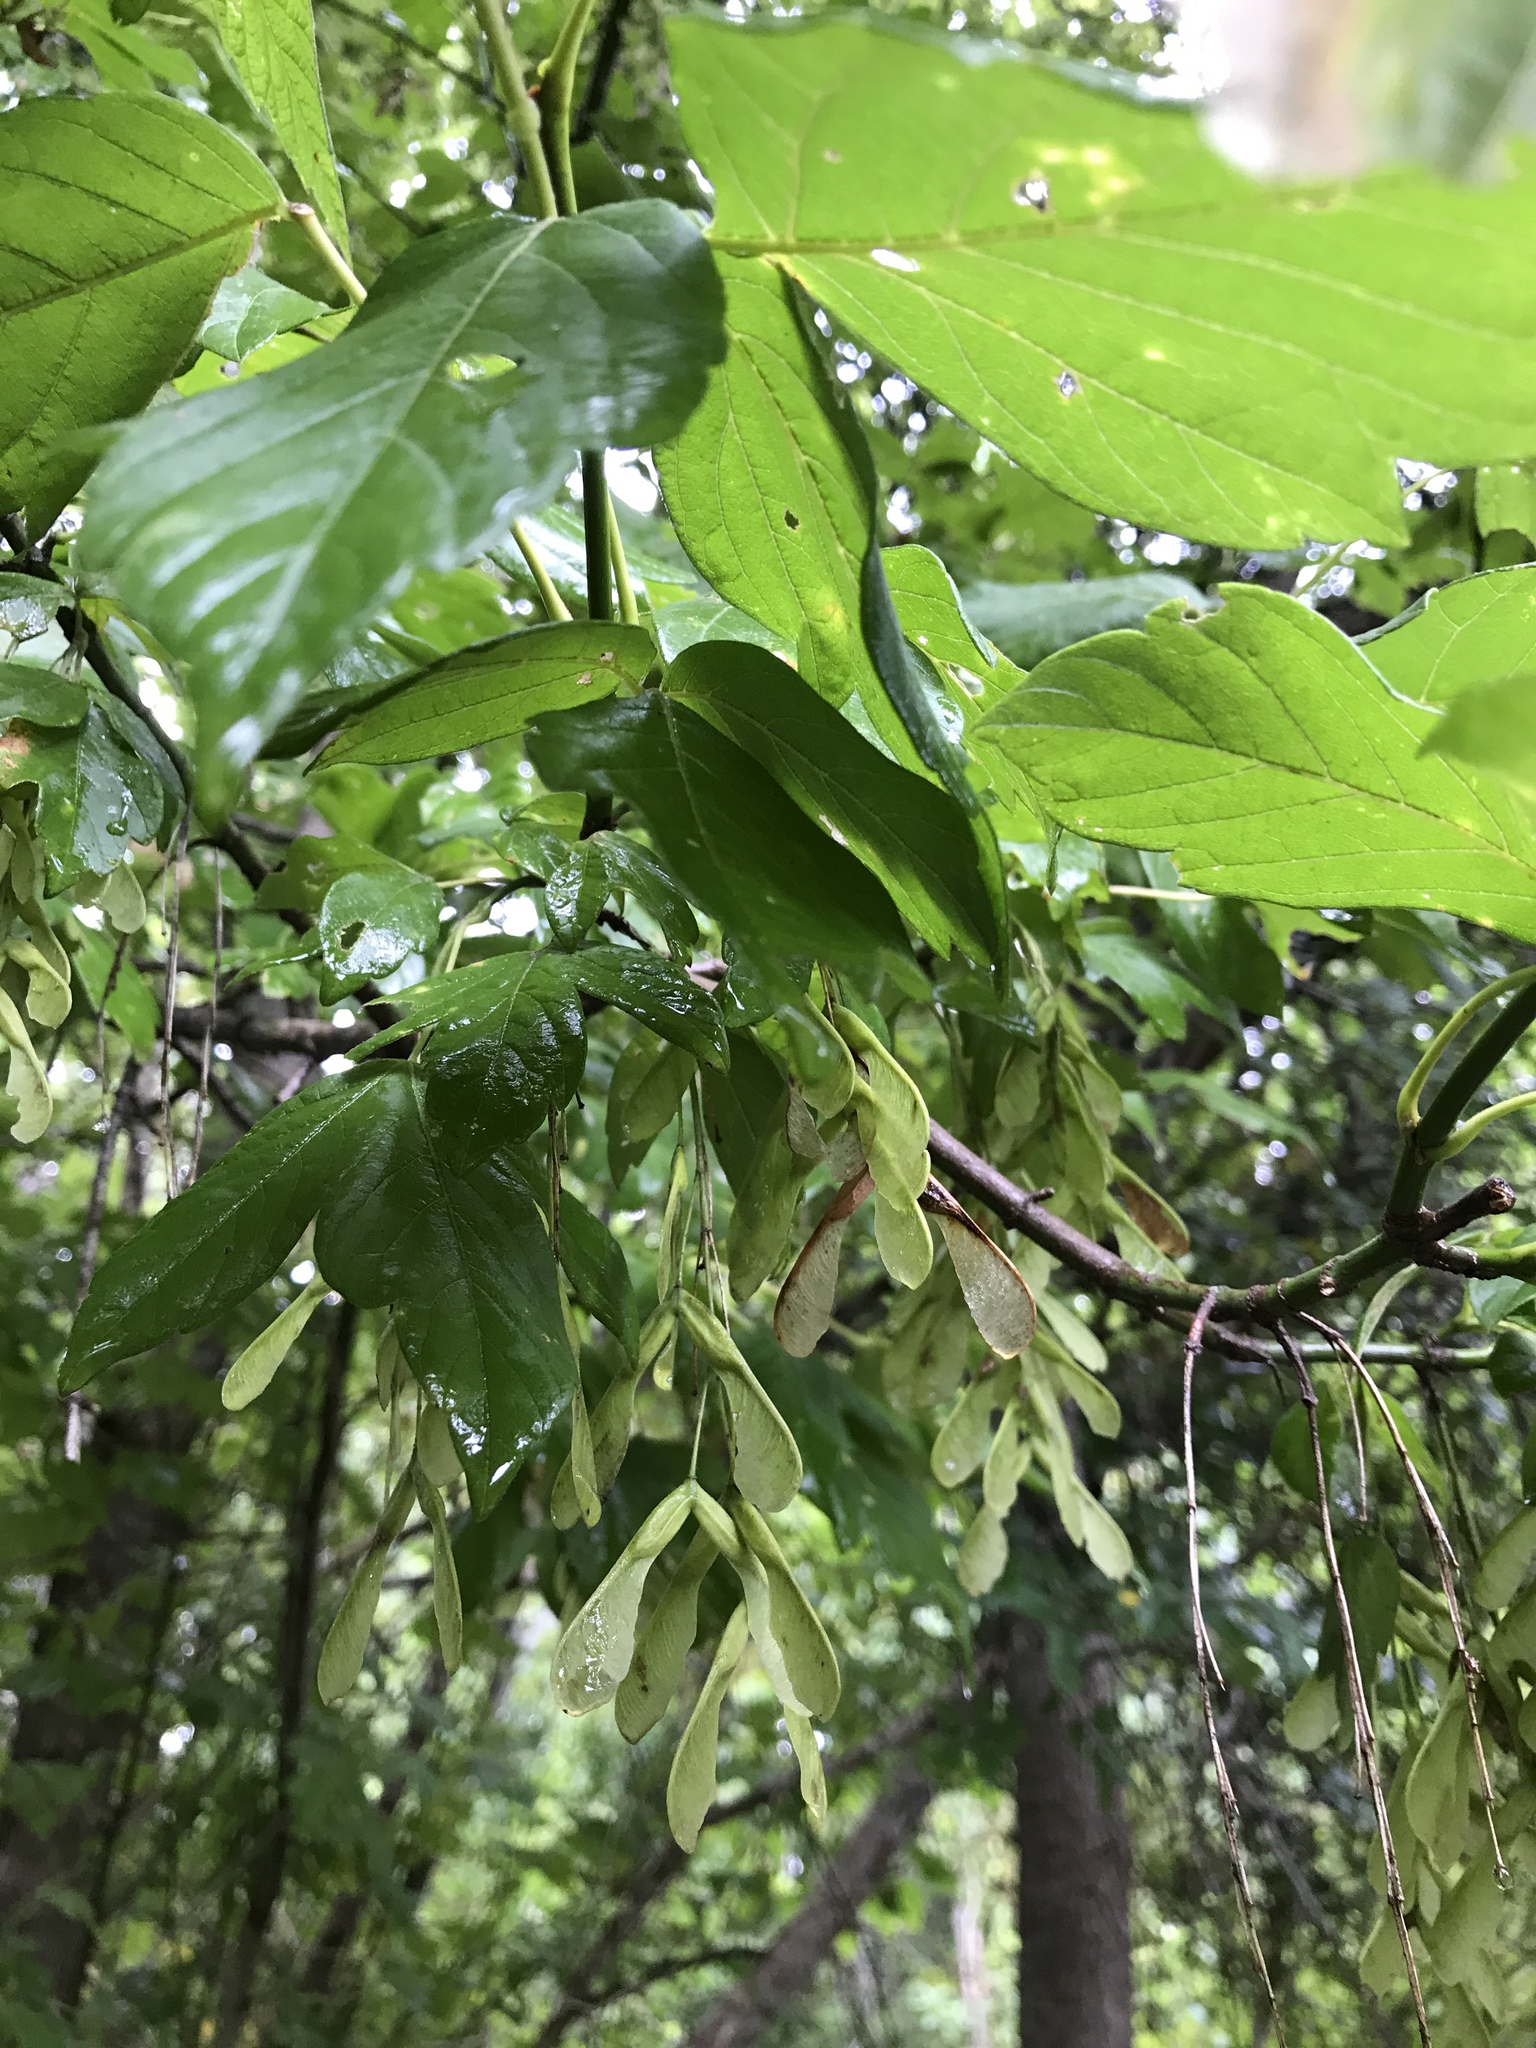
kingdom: Plantae
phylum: Tracheophyta
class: Magnoliopsida
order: Sapindales
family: Sapindaceae
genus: Acer
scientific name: Acer negundo
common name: Ashleaf maple
